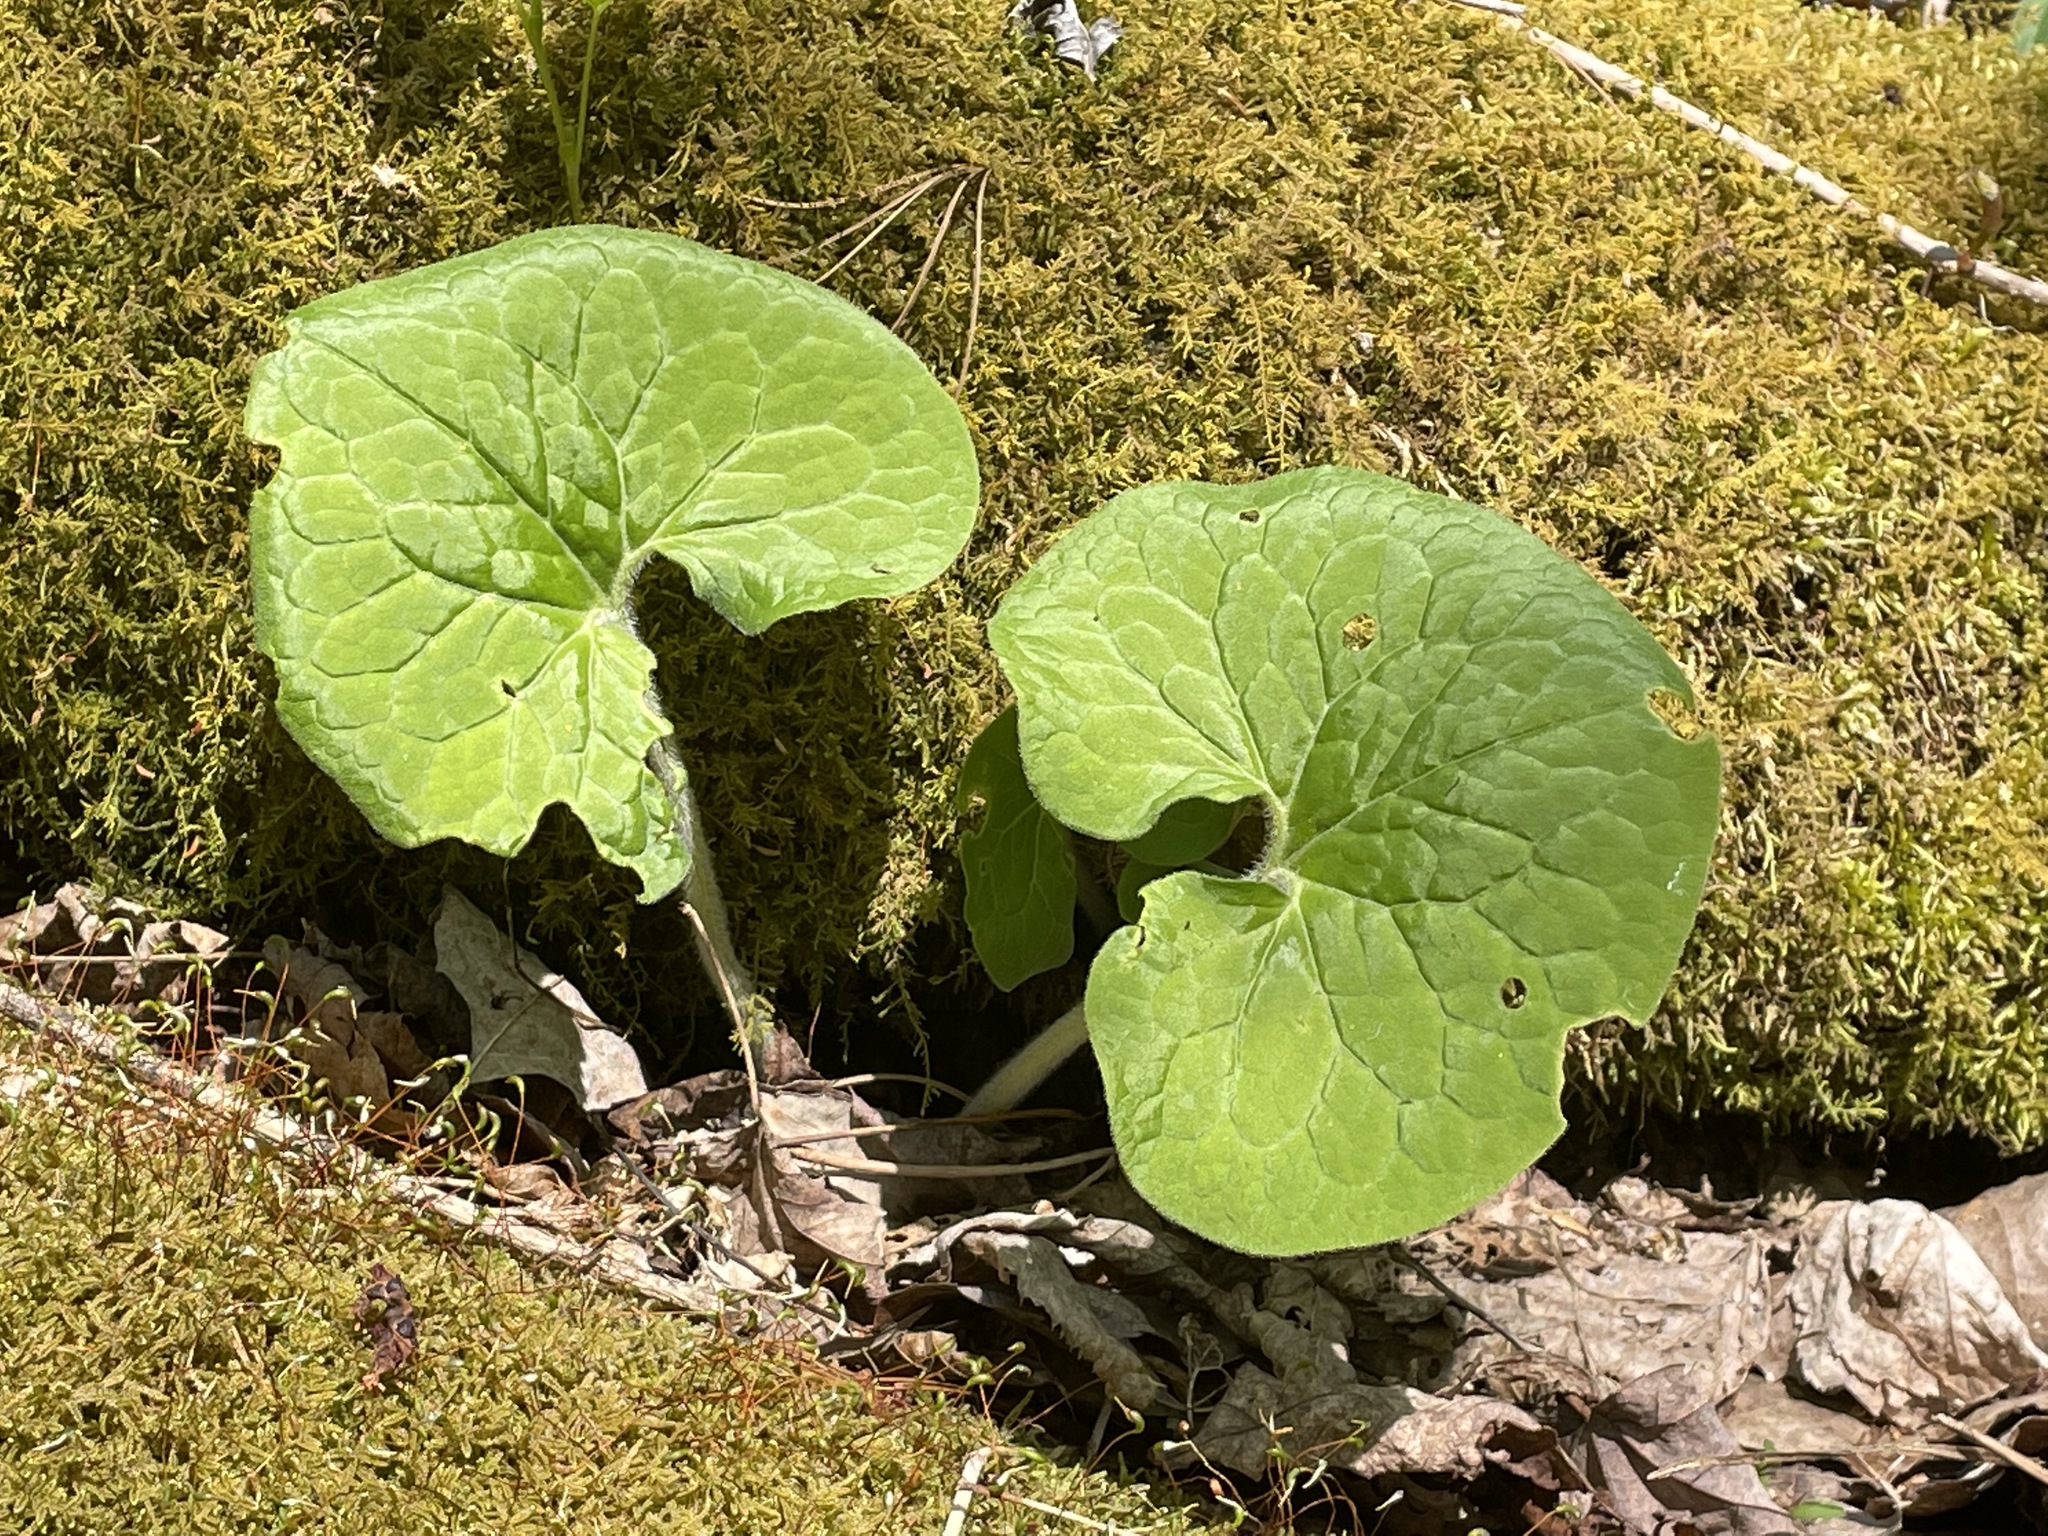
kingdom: Plantae
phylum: Tracheophyta
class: Magnoliopsida
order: Piperales
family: Aristolochiaceae
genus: Asarum
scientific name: Asarum canadense
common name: Wild ginger
